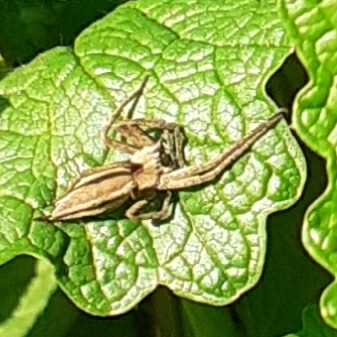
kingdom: Animalia
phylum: Arthropoda
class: Arachnida
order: Araneae
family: Pisauridae
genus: Pisaura
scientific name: Pisaura mirabilis
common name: Tent spider
